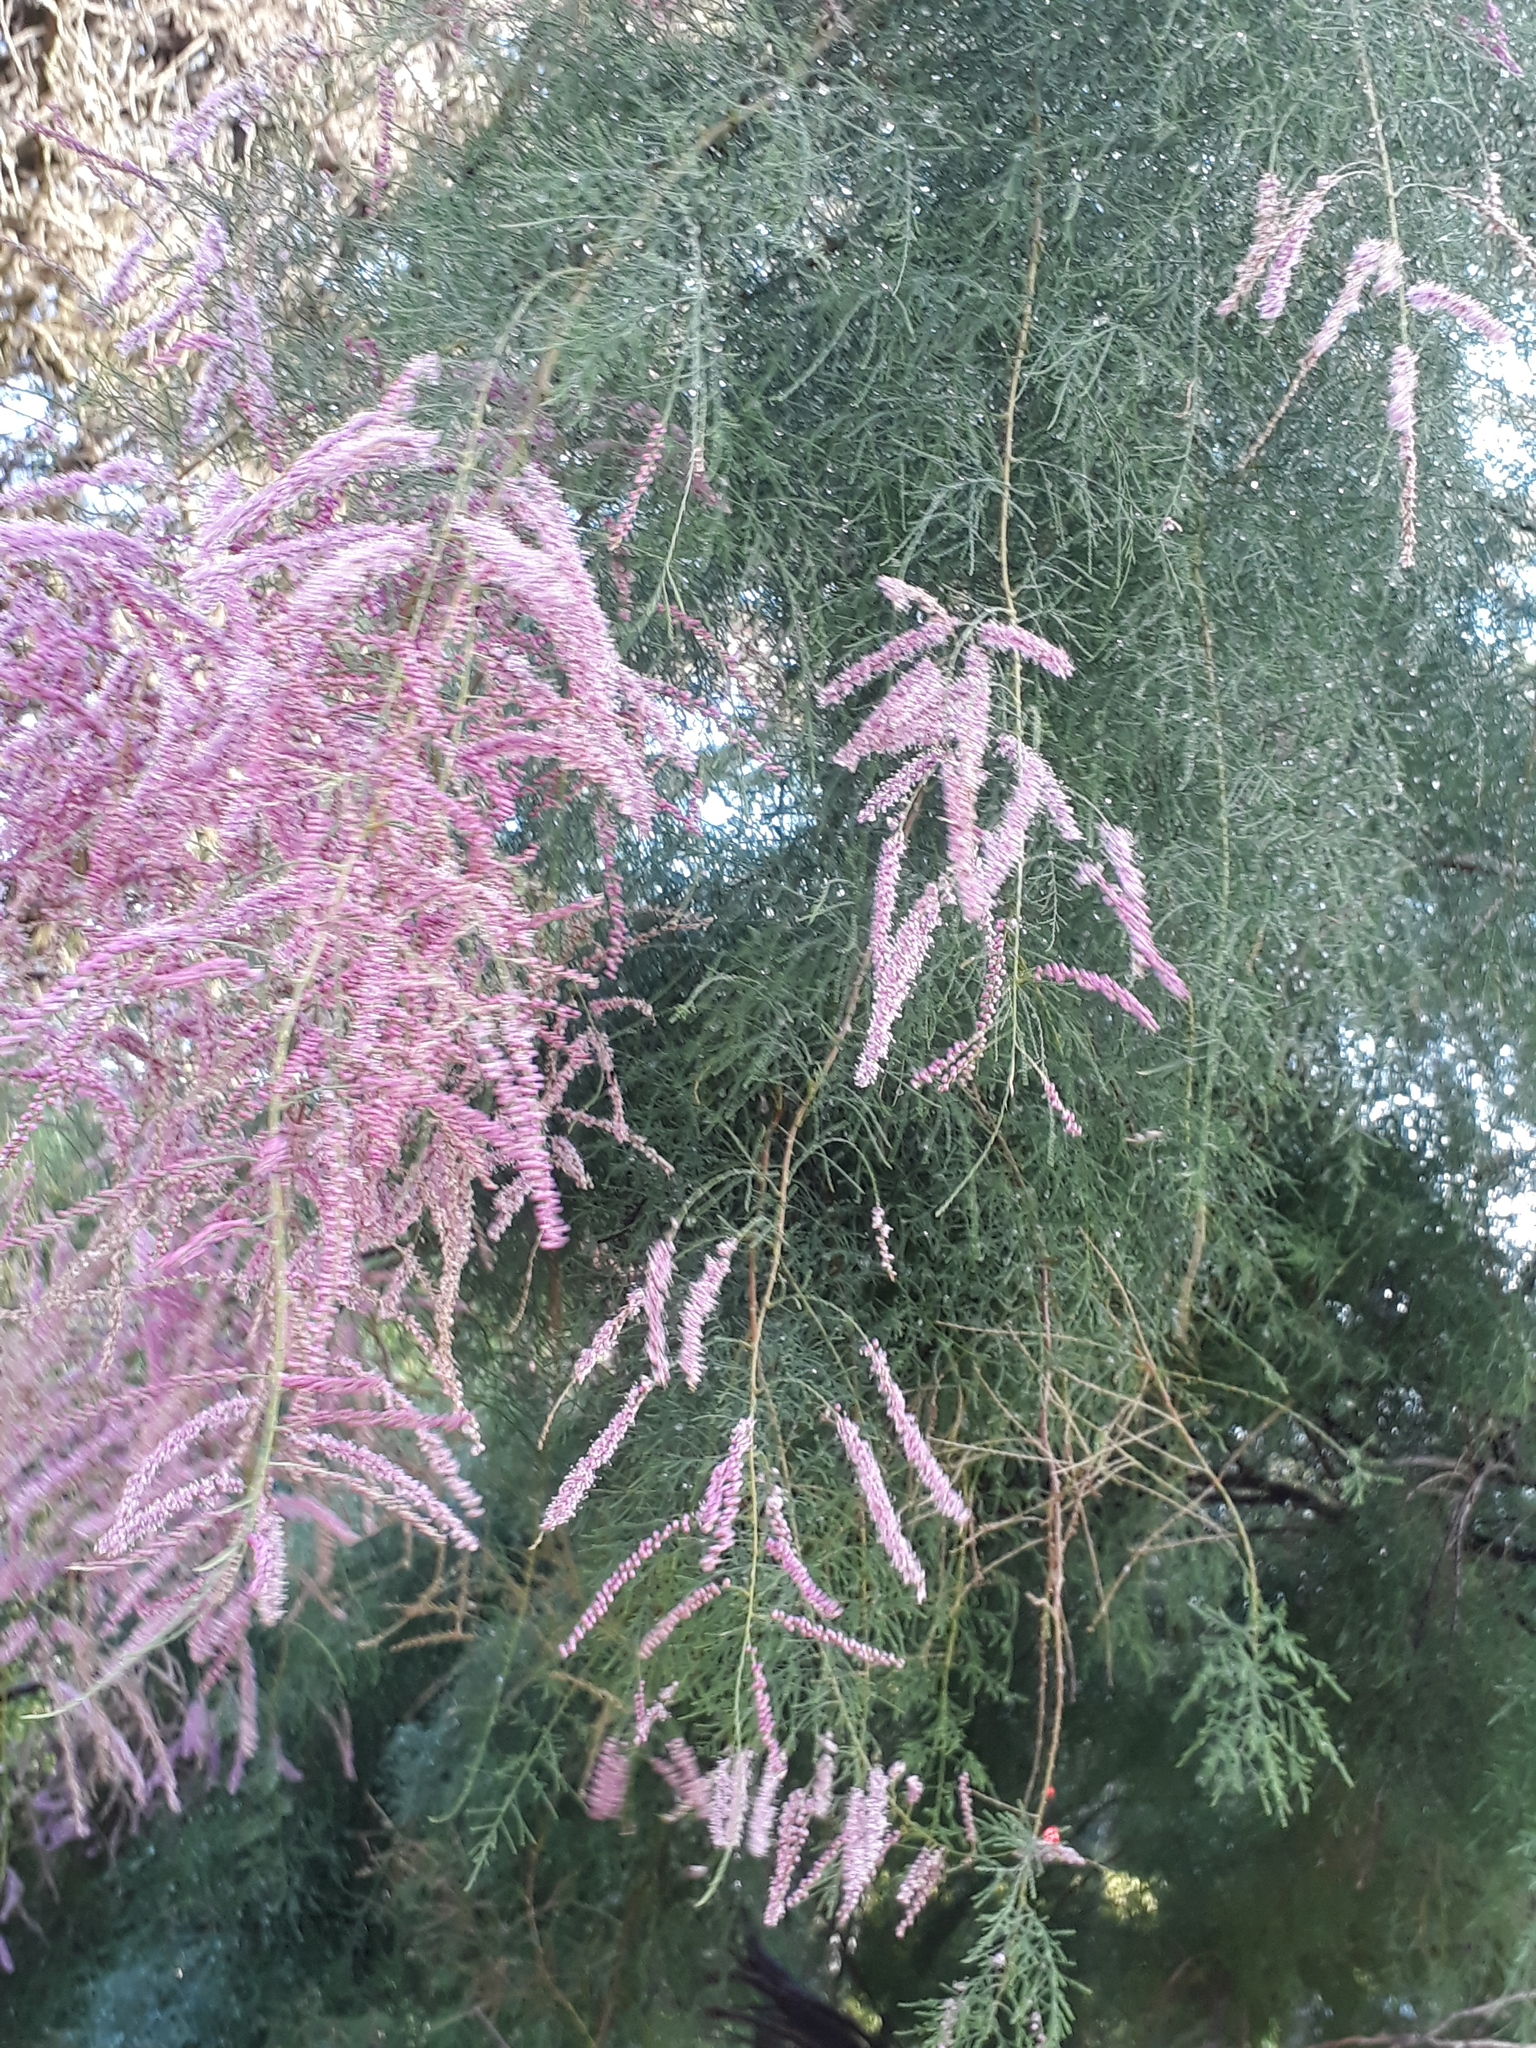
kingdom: Plantae
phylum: Tracheophyta
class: Magnoliopsida
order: Caryophyllales
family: Tamaricaceae
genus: Tamarix
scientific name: Tamarix chinensis
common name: Chinese tamarisk
